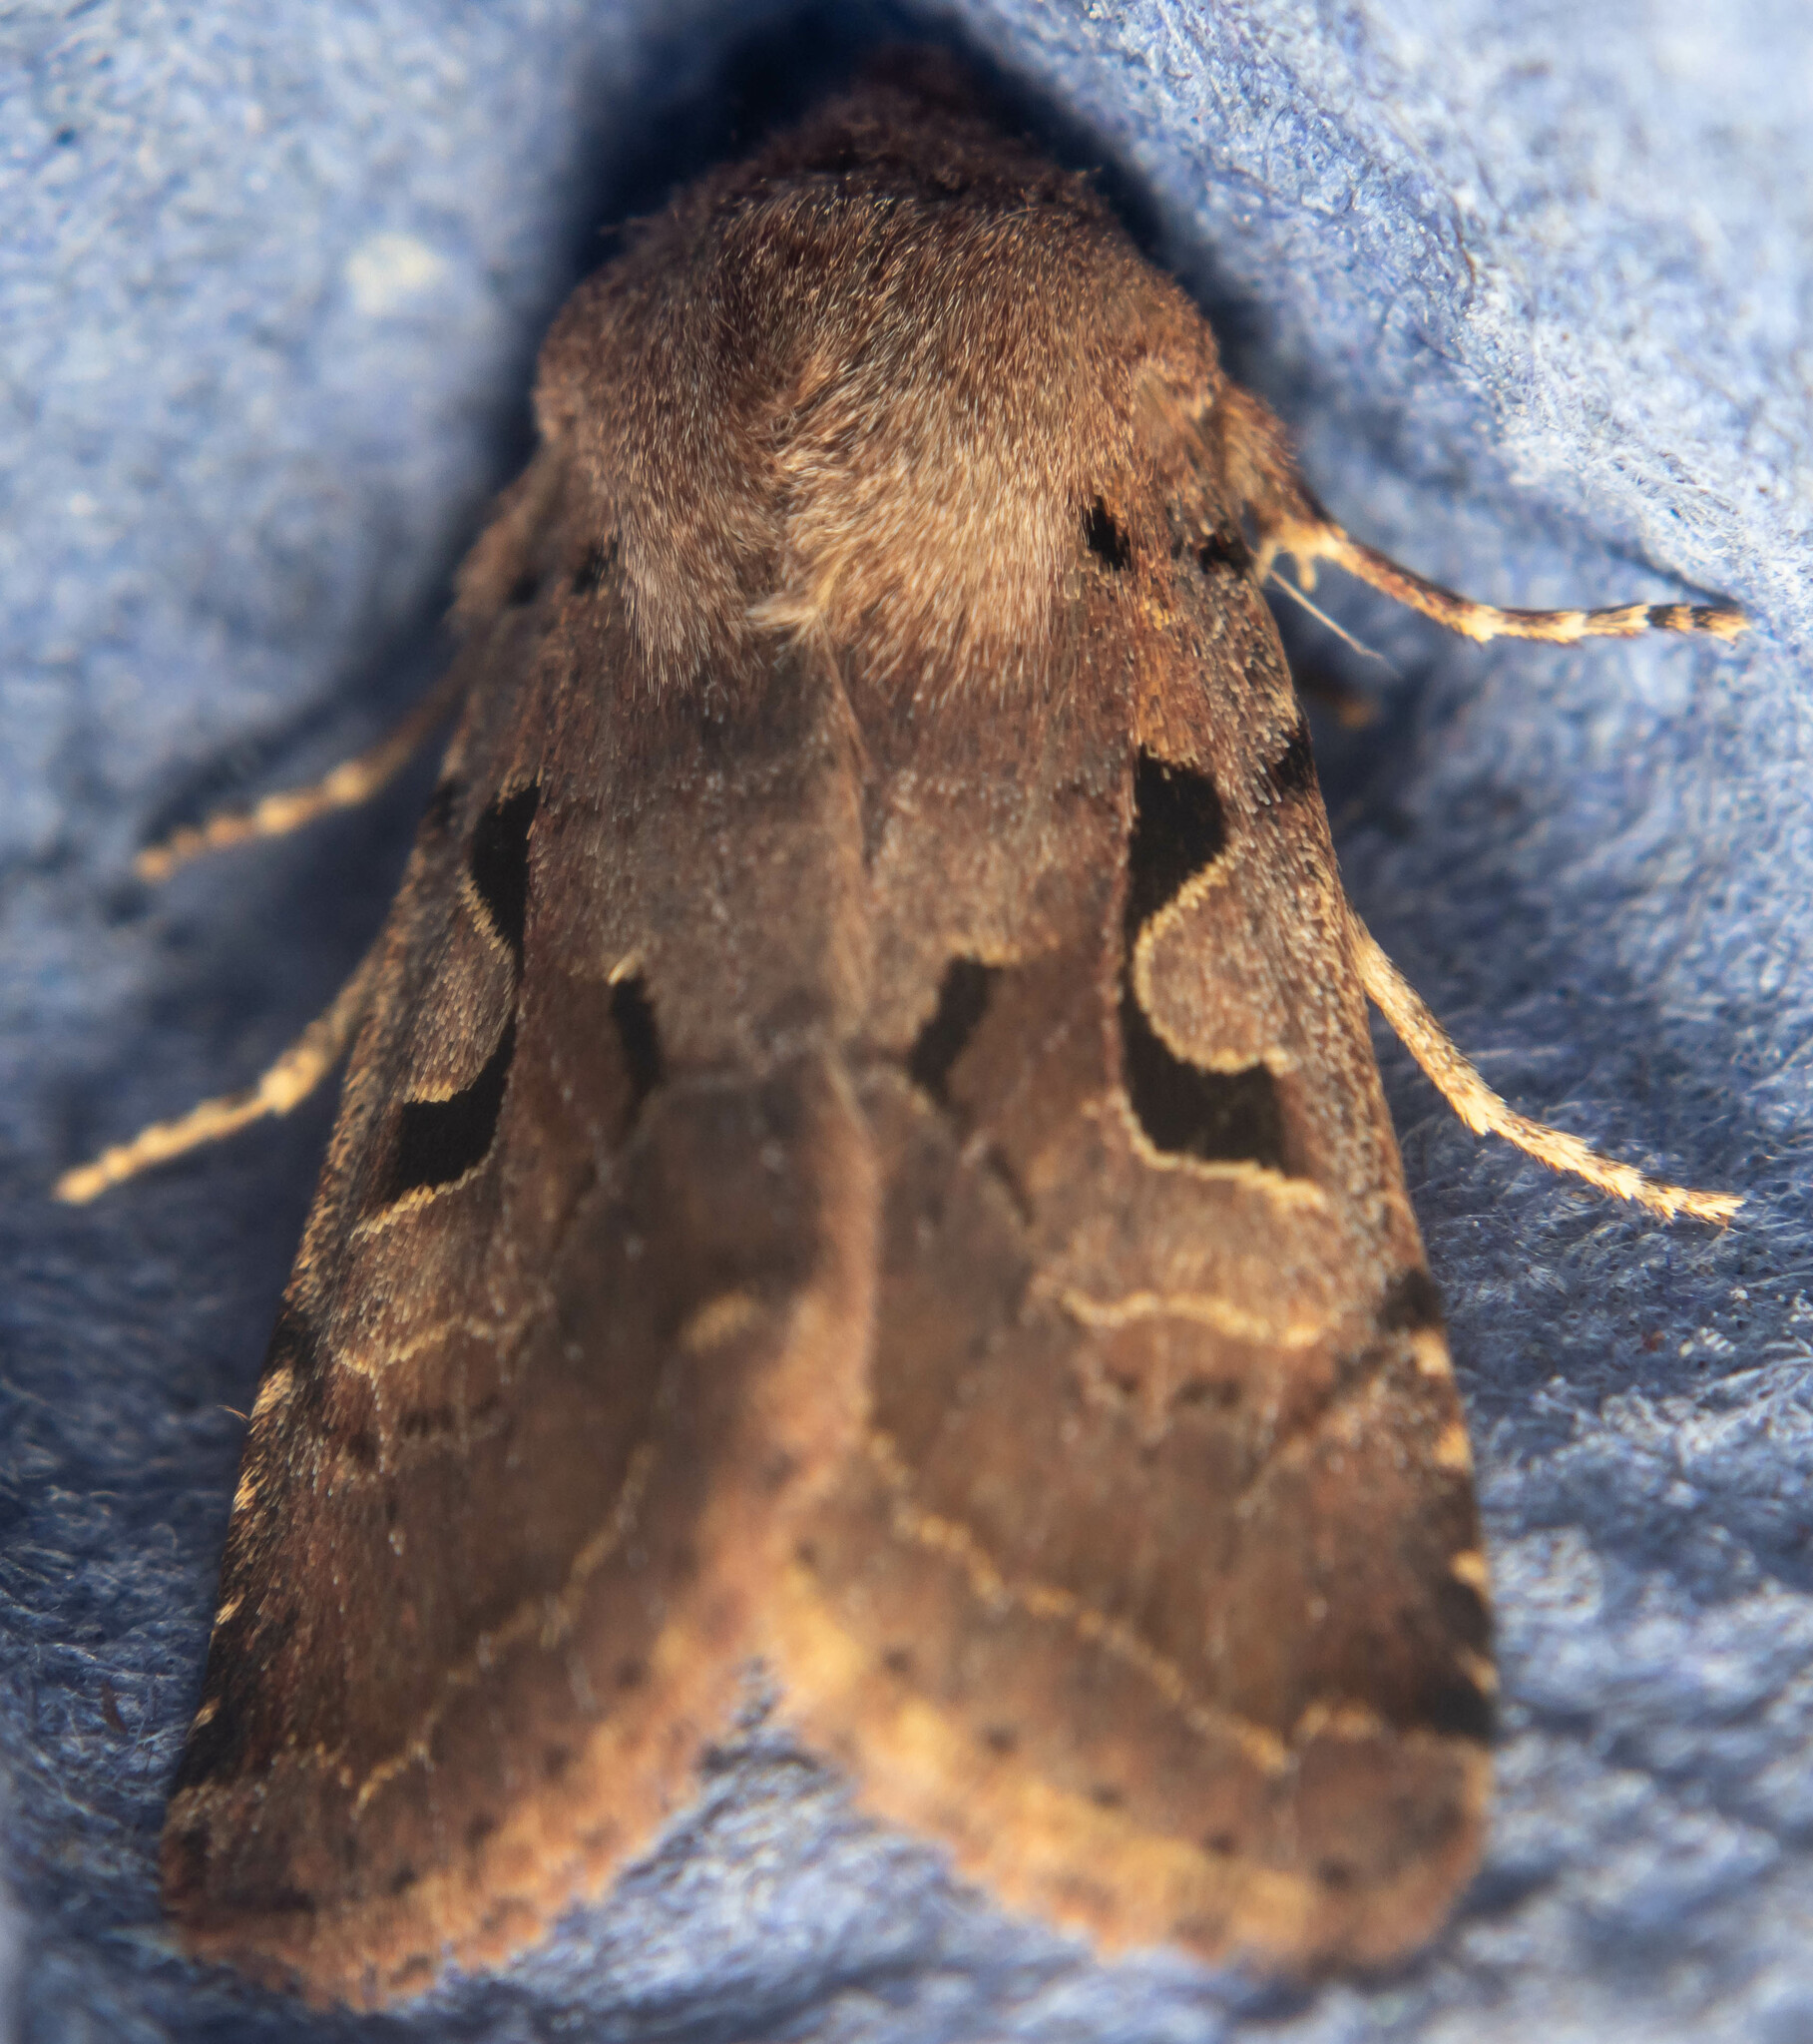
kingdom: Animalia
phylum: Arthropoda
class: Insecta
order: Lepidoptera
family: Noctuidae
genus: Orthosia
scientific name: Orthosia gothica
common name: Hebrew character
